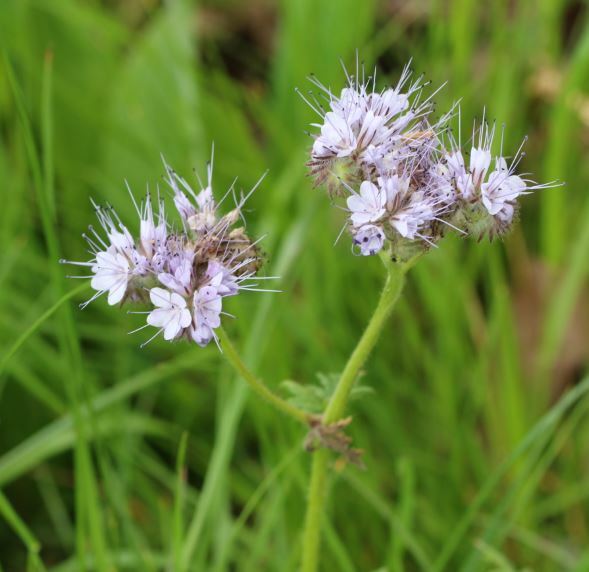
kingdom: Plantae
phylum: Tracheophyta
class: Magnoliopsida
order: Boraginales
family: Hydrophyllaceae
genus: Phacelia
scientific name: Phacelia tanacetifolia
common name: Phacelia
